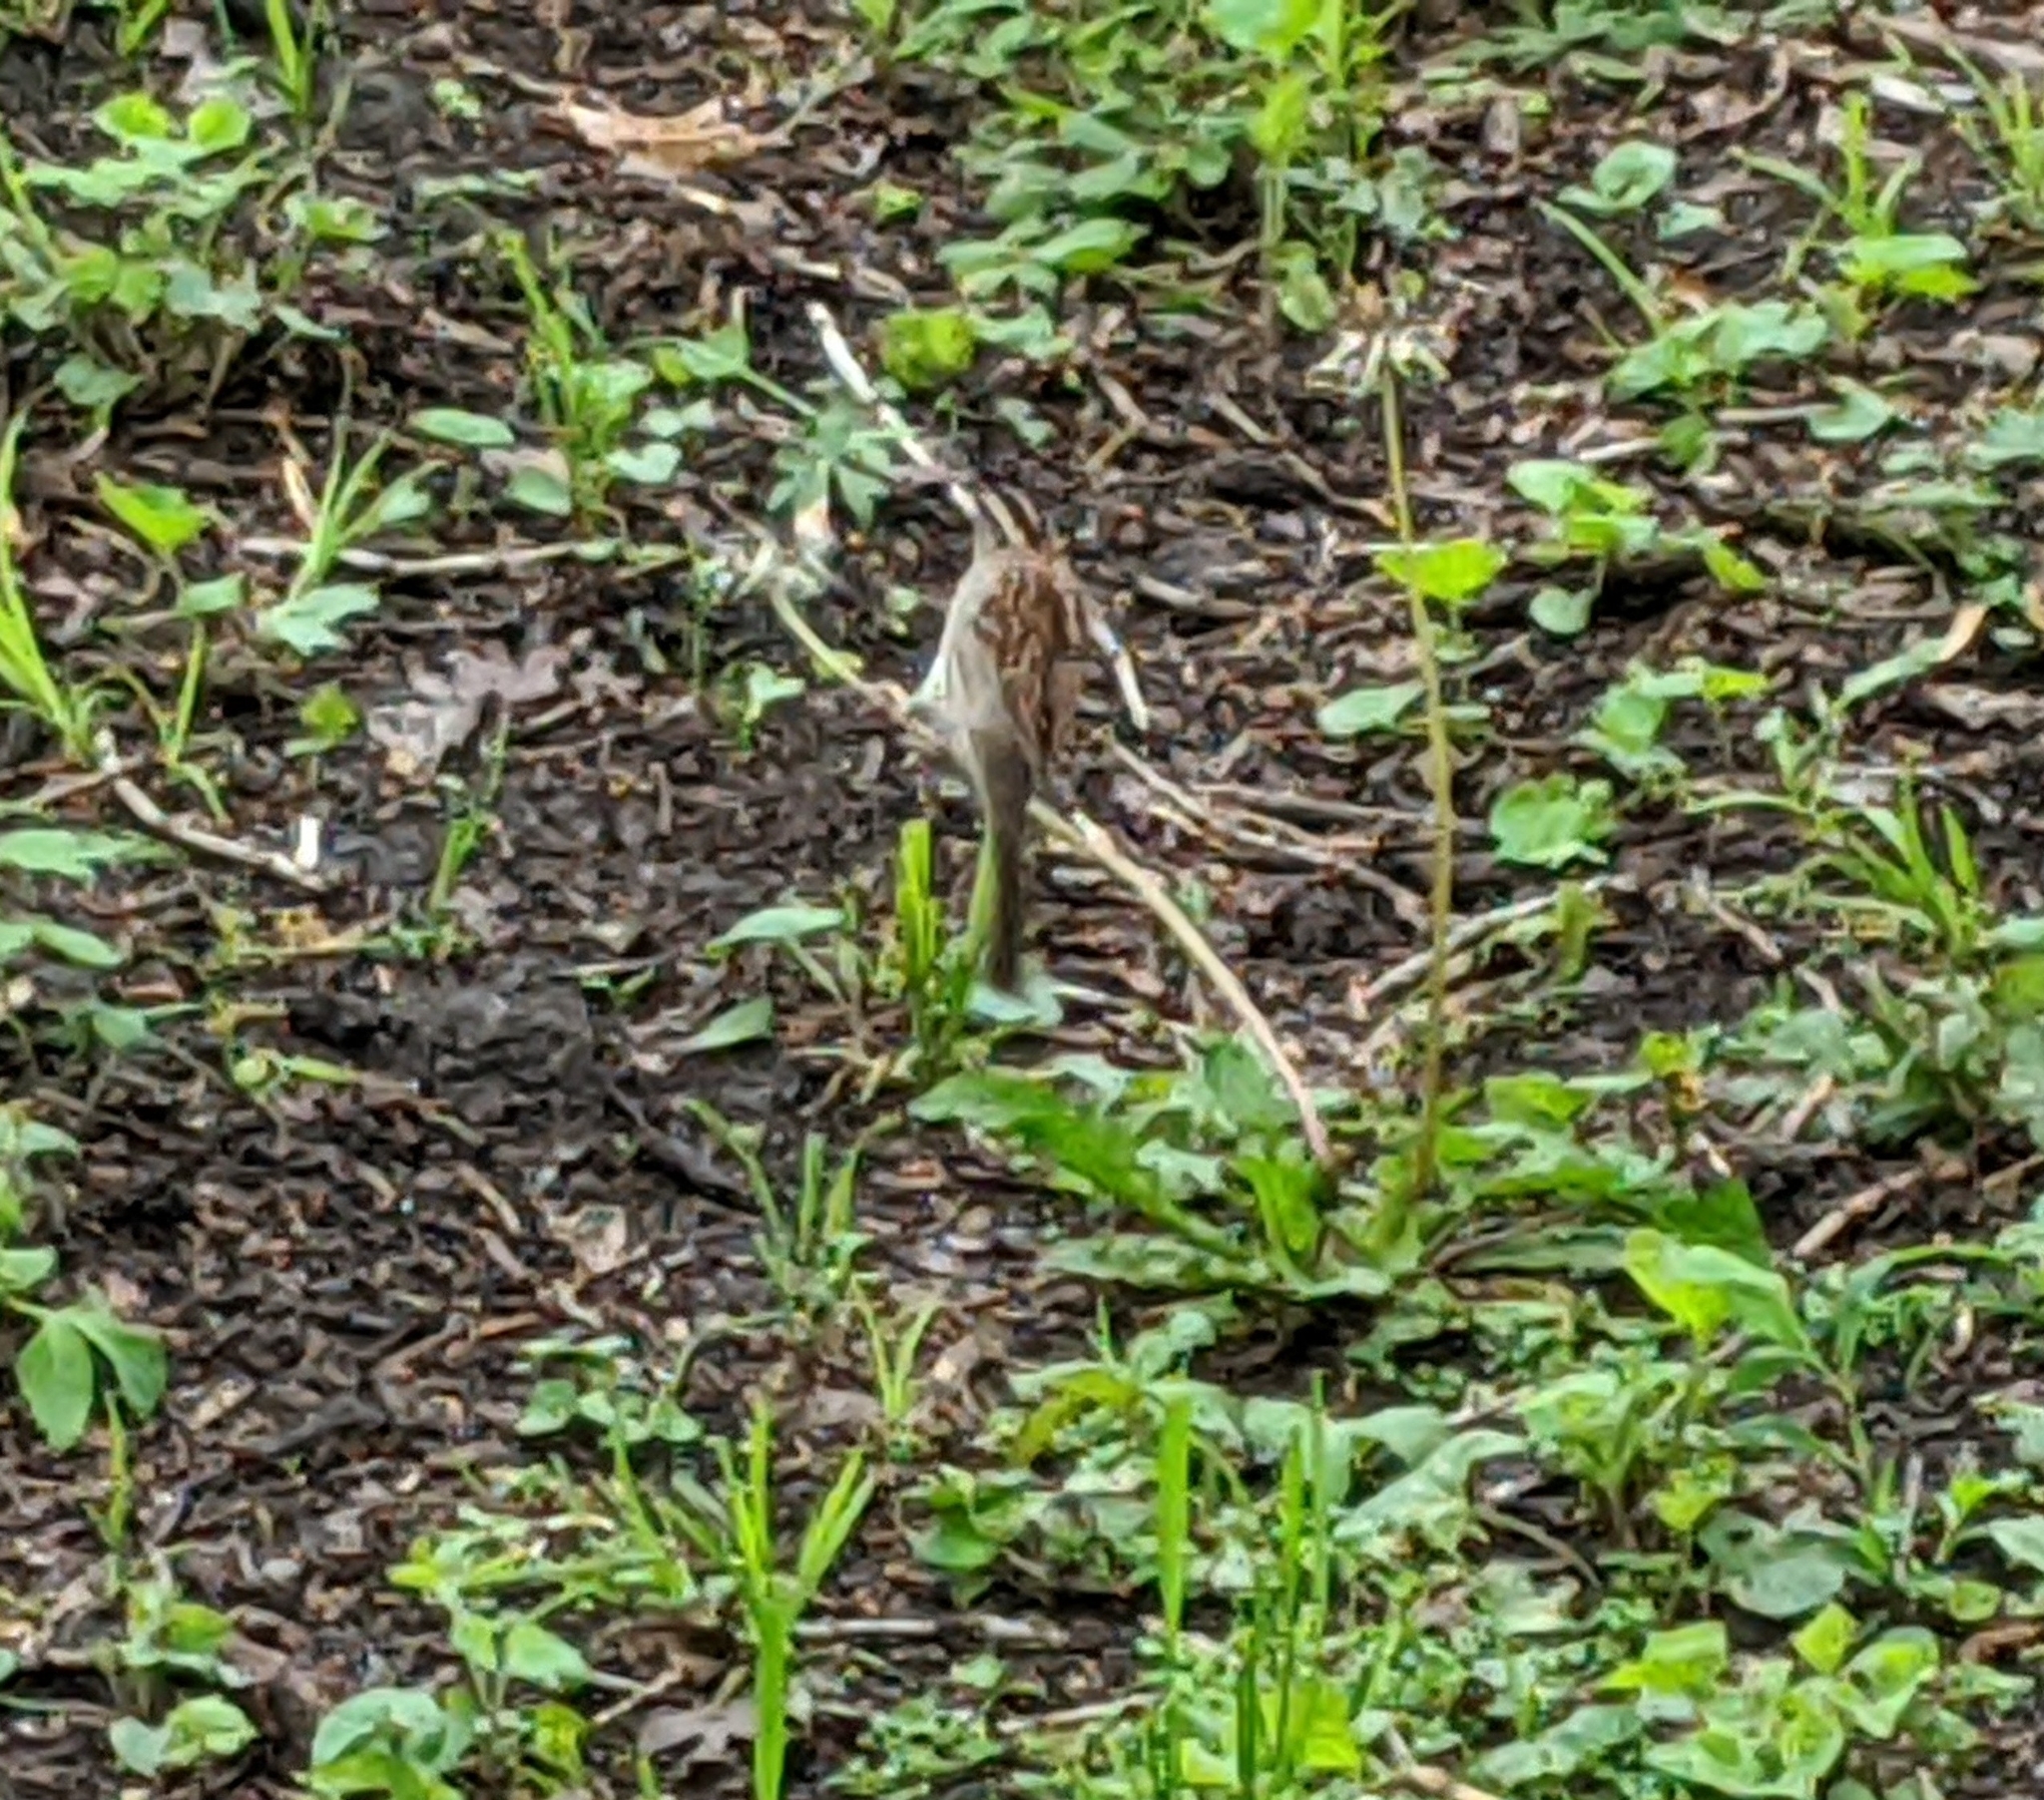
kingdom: Animalia
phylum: Chordata
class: Aves
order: Passeriformes
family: Passerellidae
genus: Zonotrichia
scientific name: Zonotrichia albicollis
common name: White-throated sparrow
